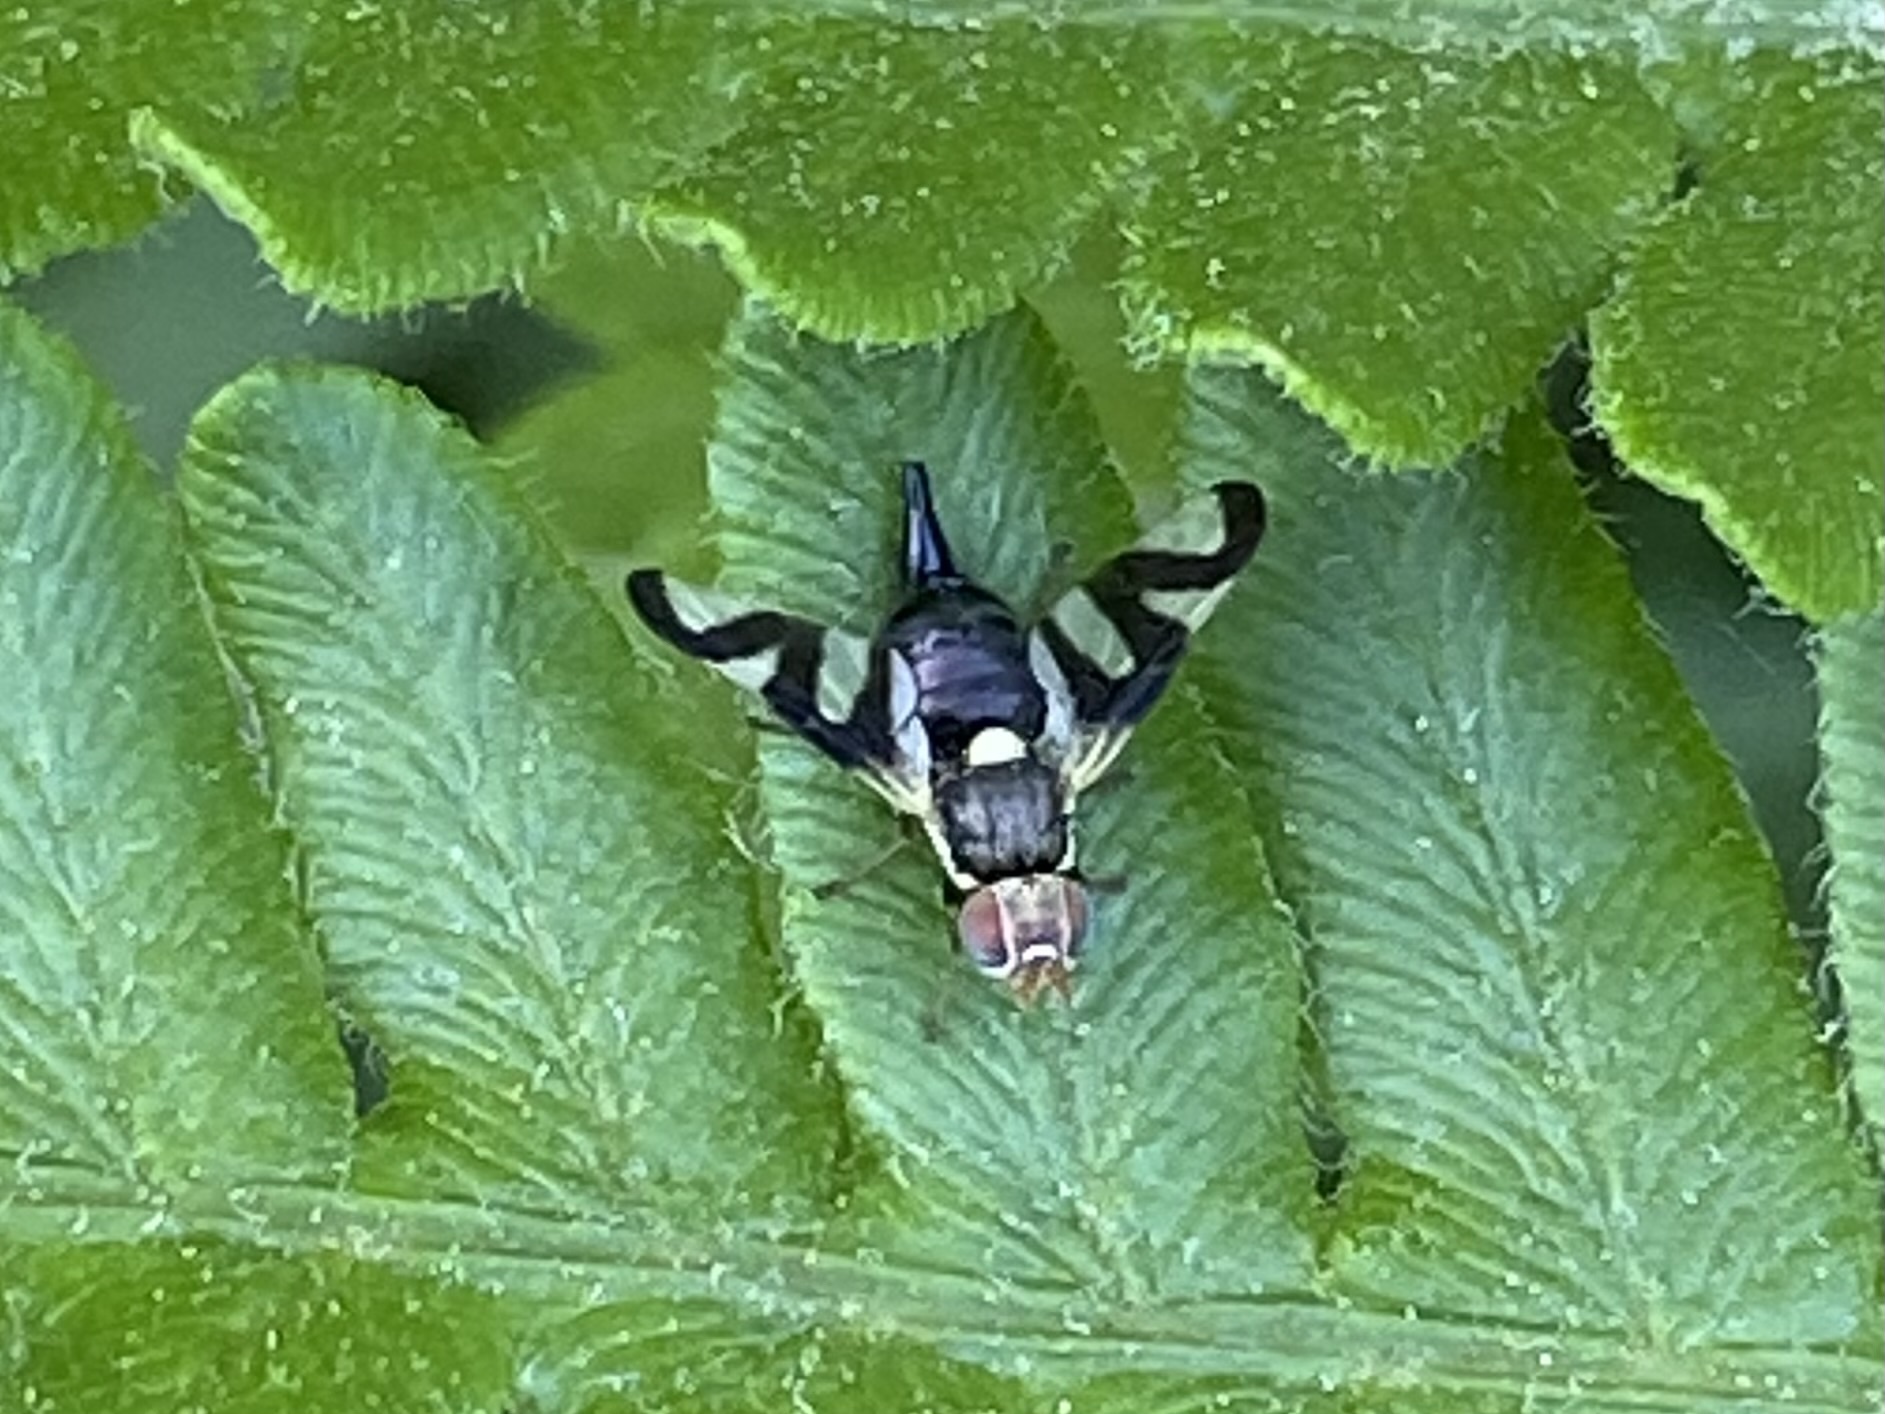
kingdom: Animalia
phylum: Arthropoda
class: Insecta
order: Diptera
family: Tephritidae
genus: Urophora
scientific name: Urophora cardui
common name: Fruit fly
